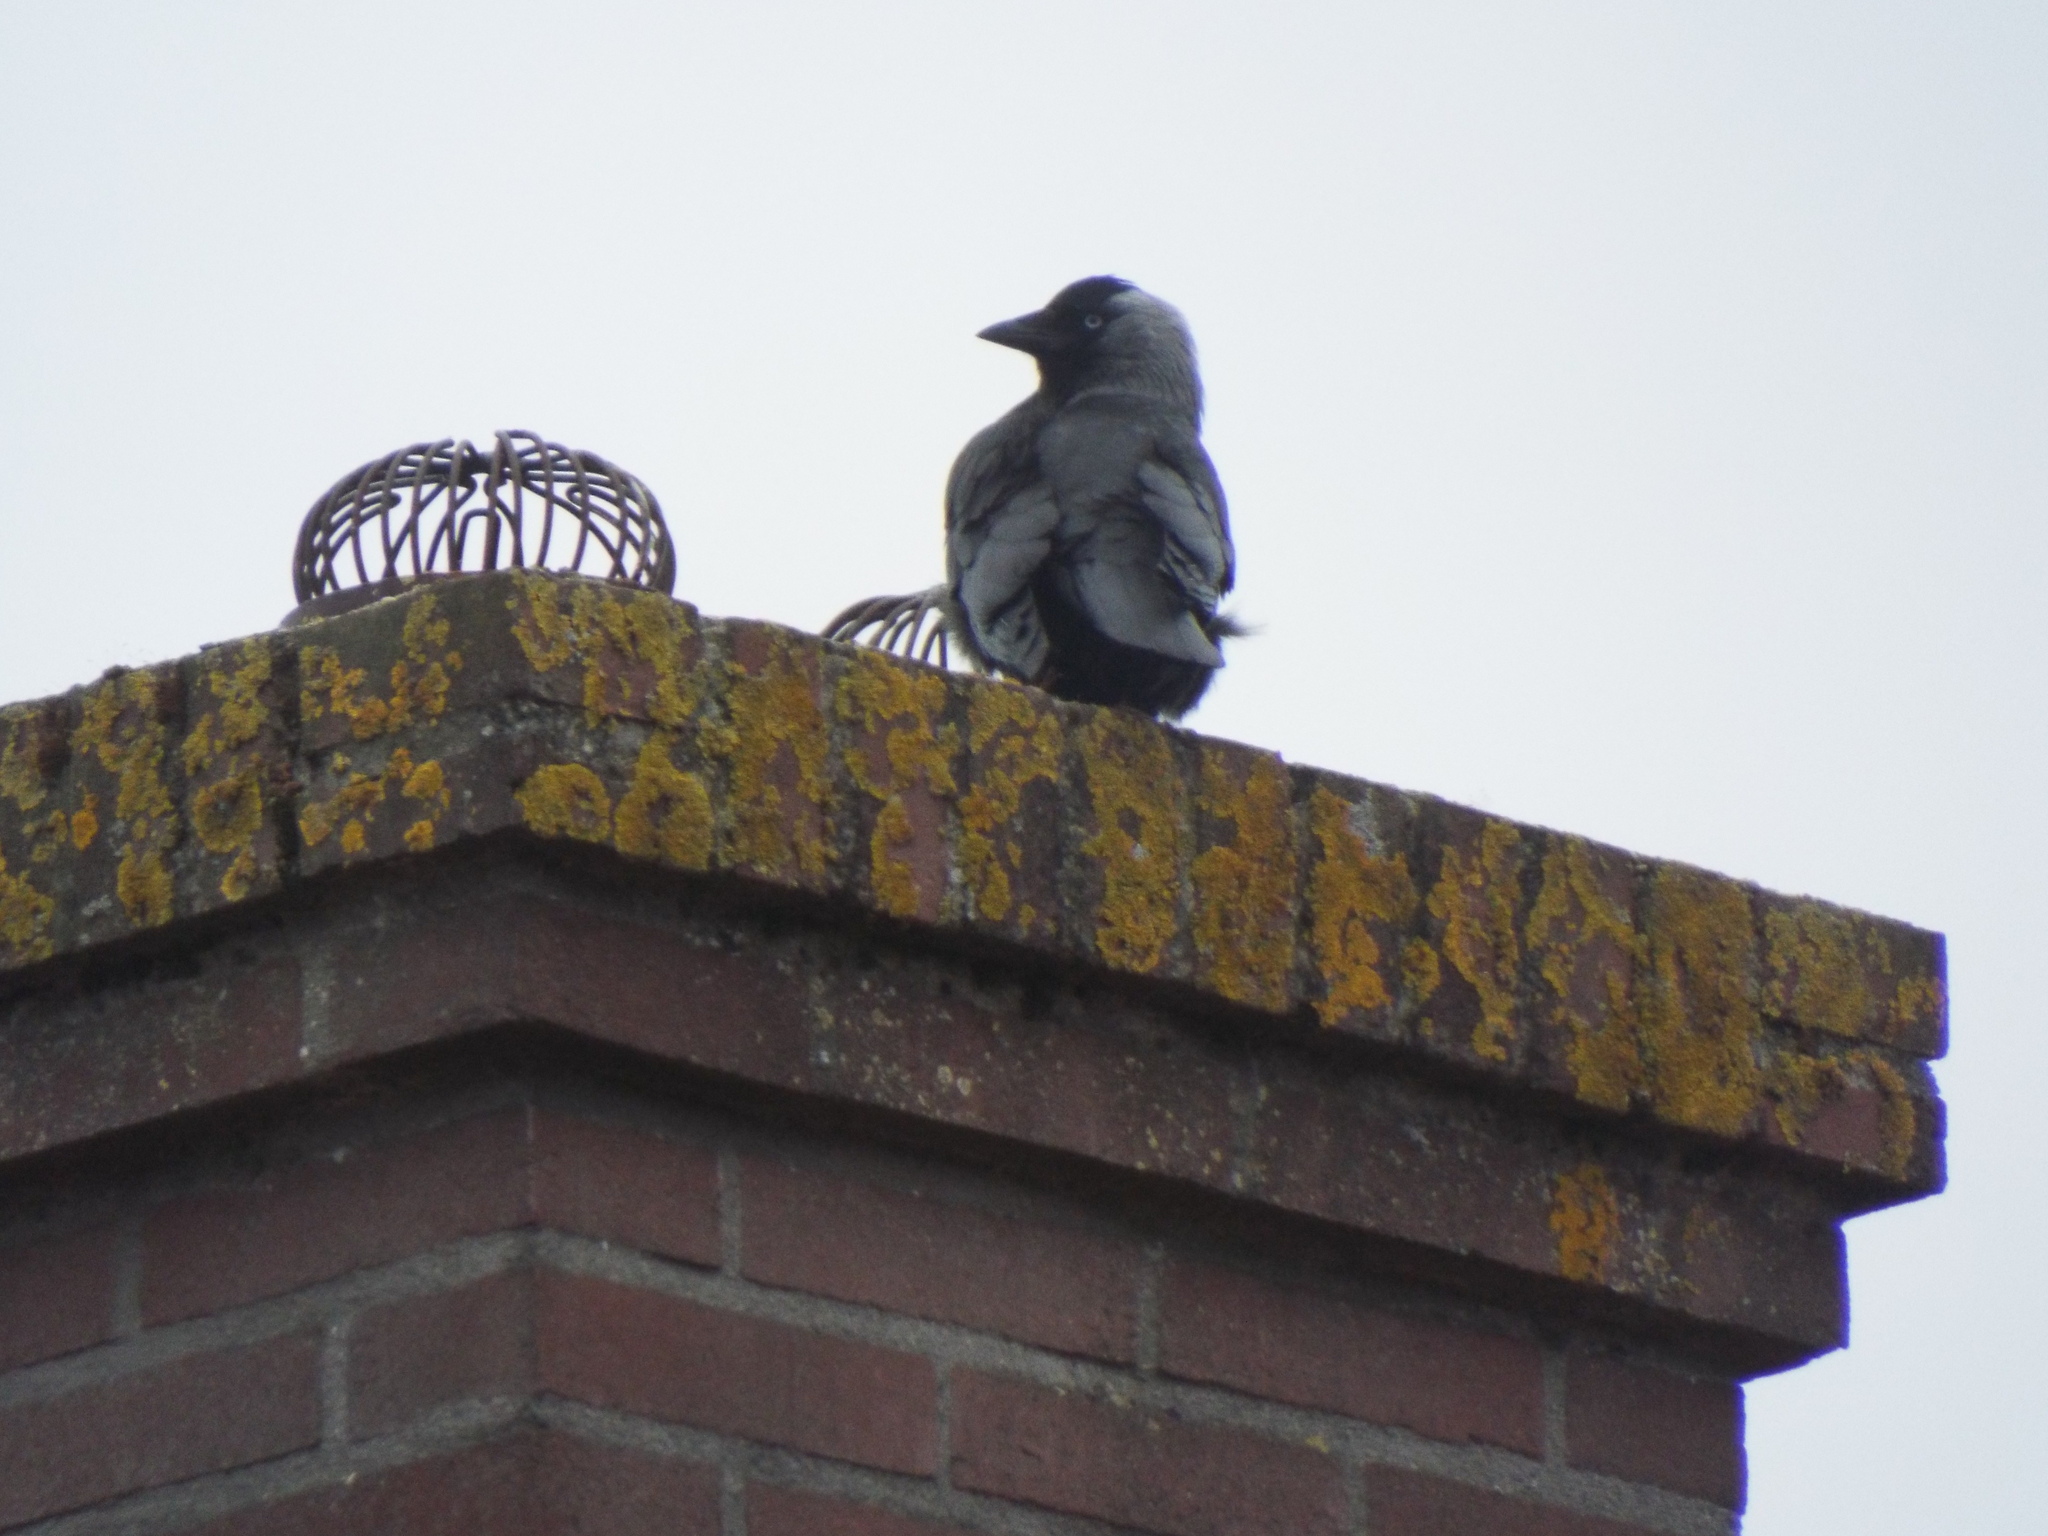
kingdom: Animalia
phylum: Chordata
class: Aves
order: Passeriformes
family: Corvidae
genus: Coloeus
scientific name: Coloeus monedula
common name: Western jackdaw
